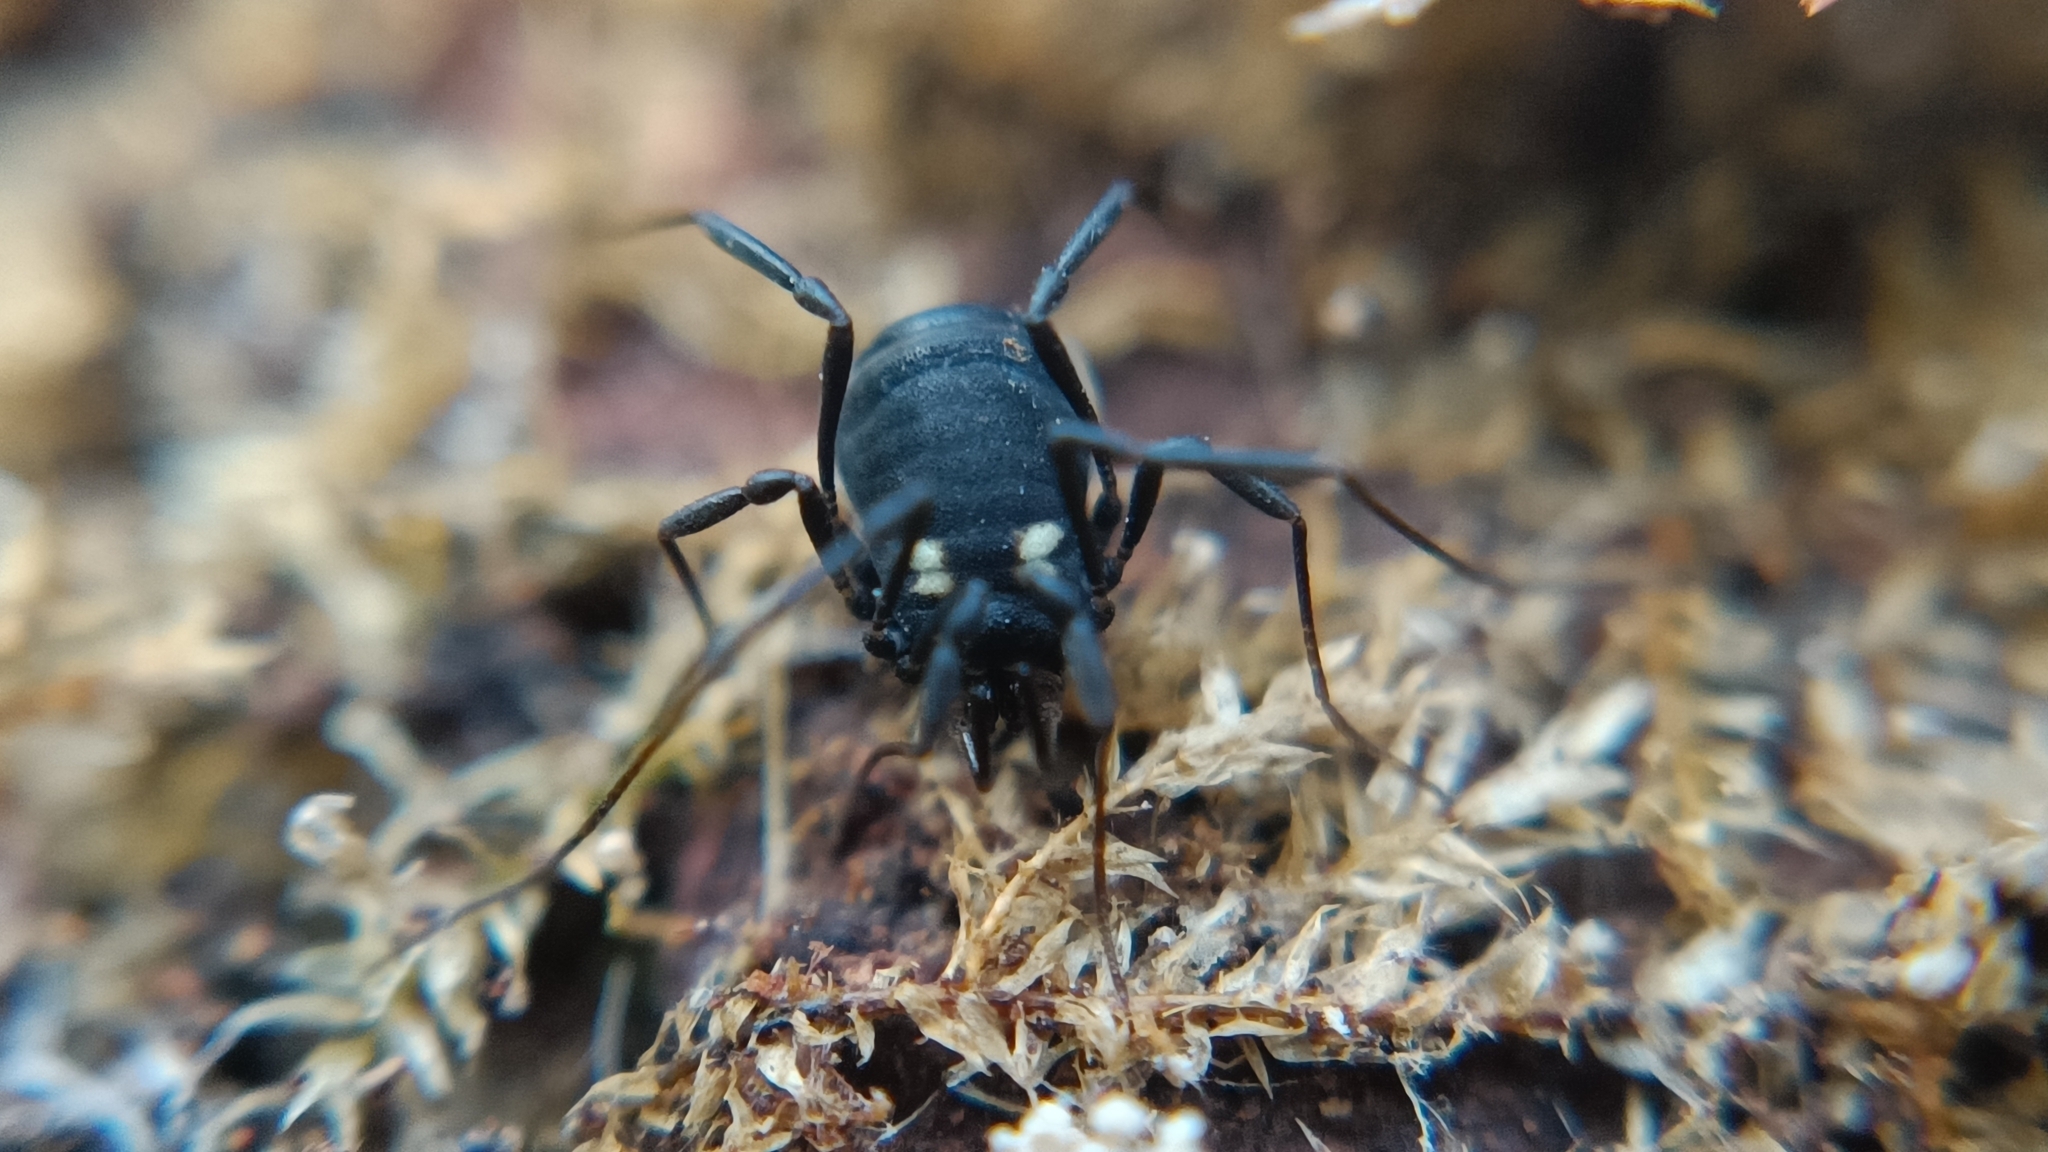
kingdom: Animalia
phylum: Arthropoda
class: Arachnida
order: Opiliones
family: Nemastomatidae
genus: Nemastoma
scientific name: Nemastoma bimaculatum
